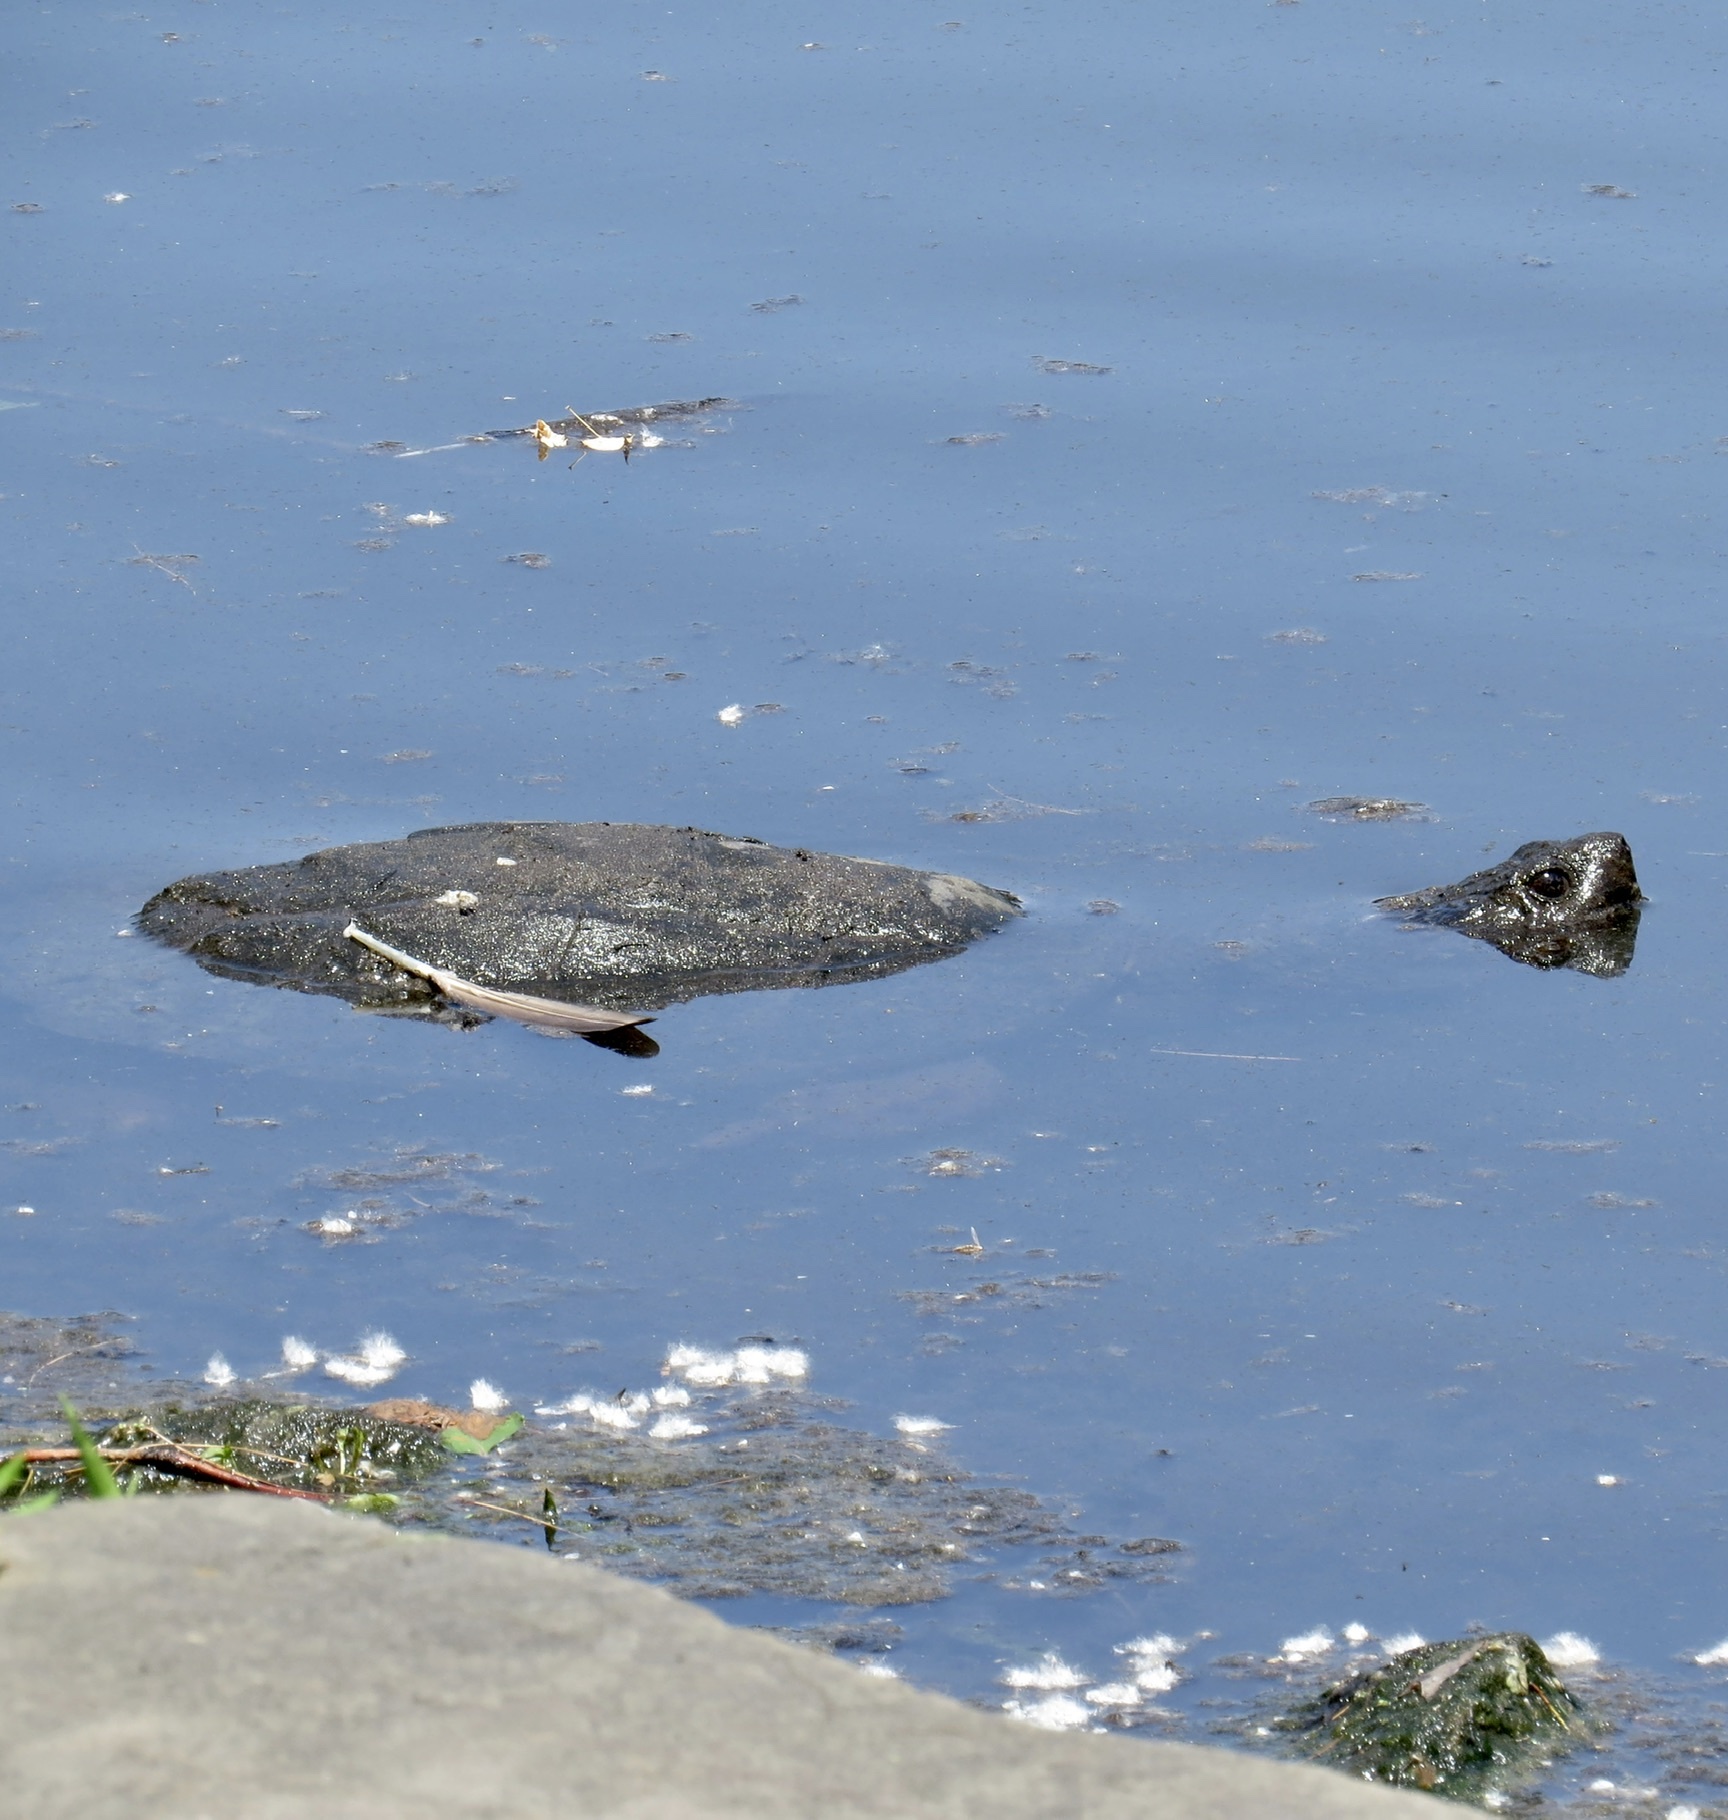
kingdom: Animalia
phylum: Chordata
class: Testudines
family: Chelydridae
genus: Chelydra
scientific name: Chelydra serpentina
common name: Common snapping turtle
